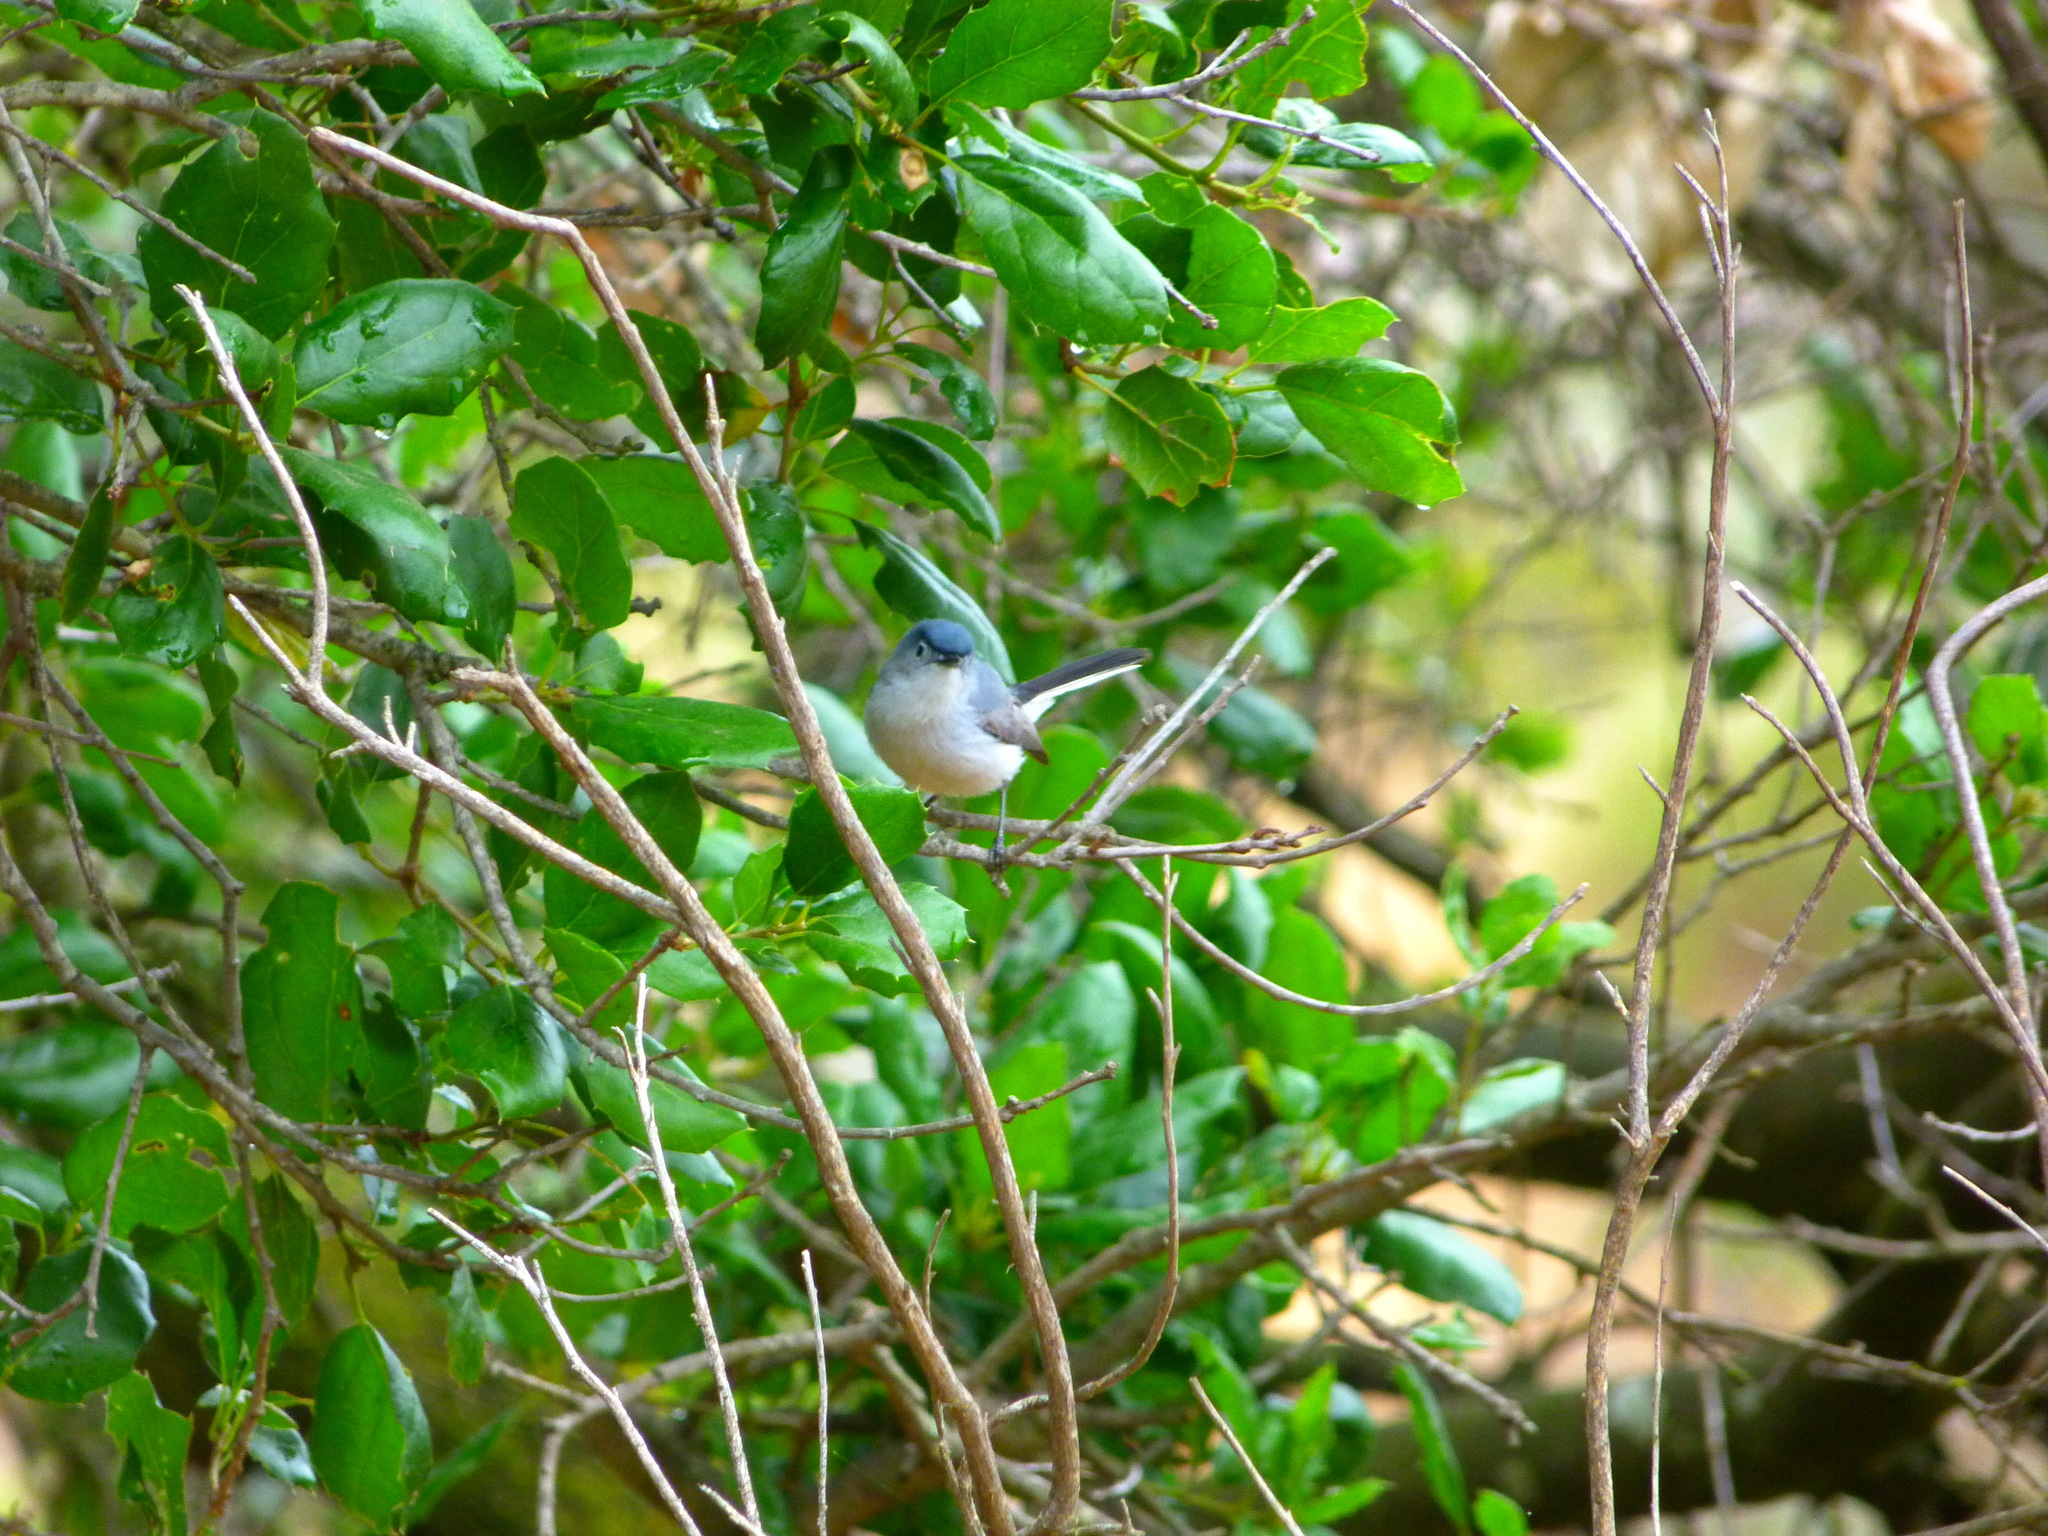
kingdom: Animalia
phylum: Chordata
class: Aves
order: Passeriformes
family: Polioptilidae
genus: Polioptila
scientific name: Polioptila caerulea
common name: Blue-gray gnatcatcher
